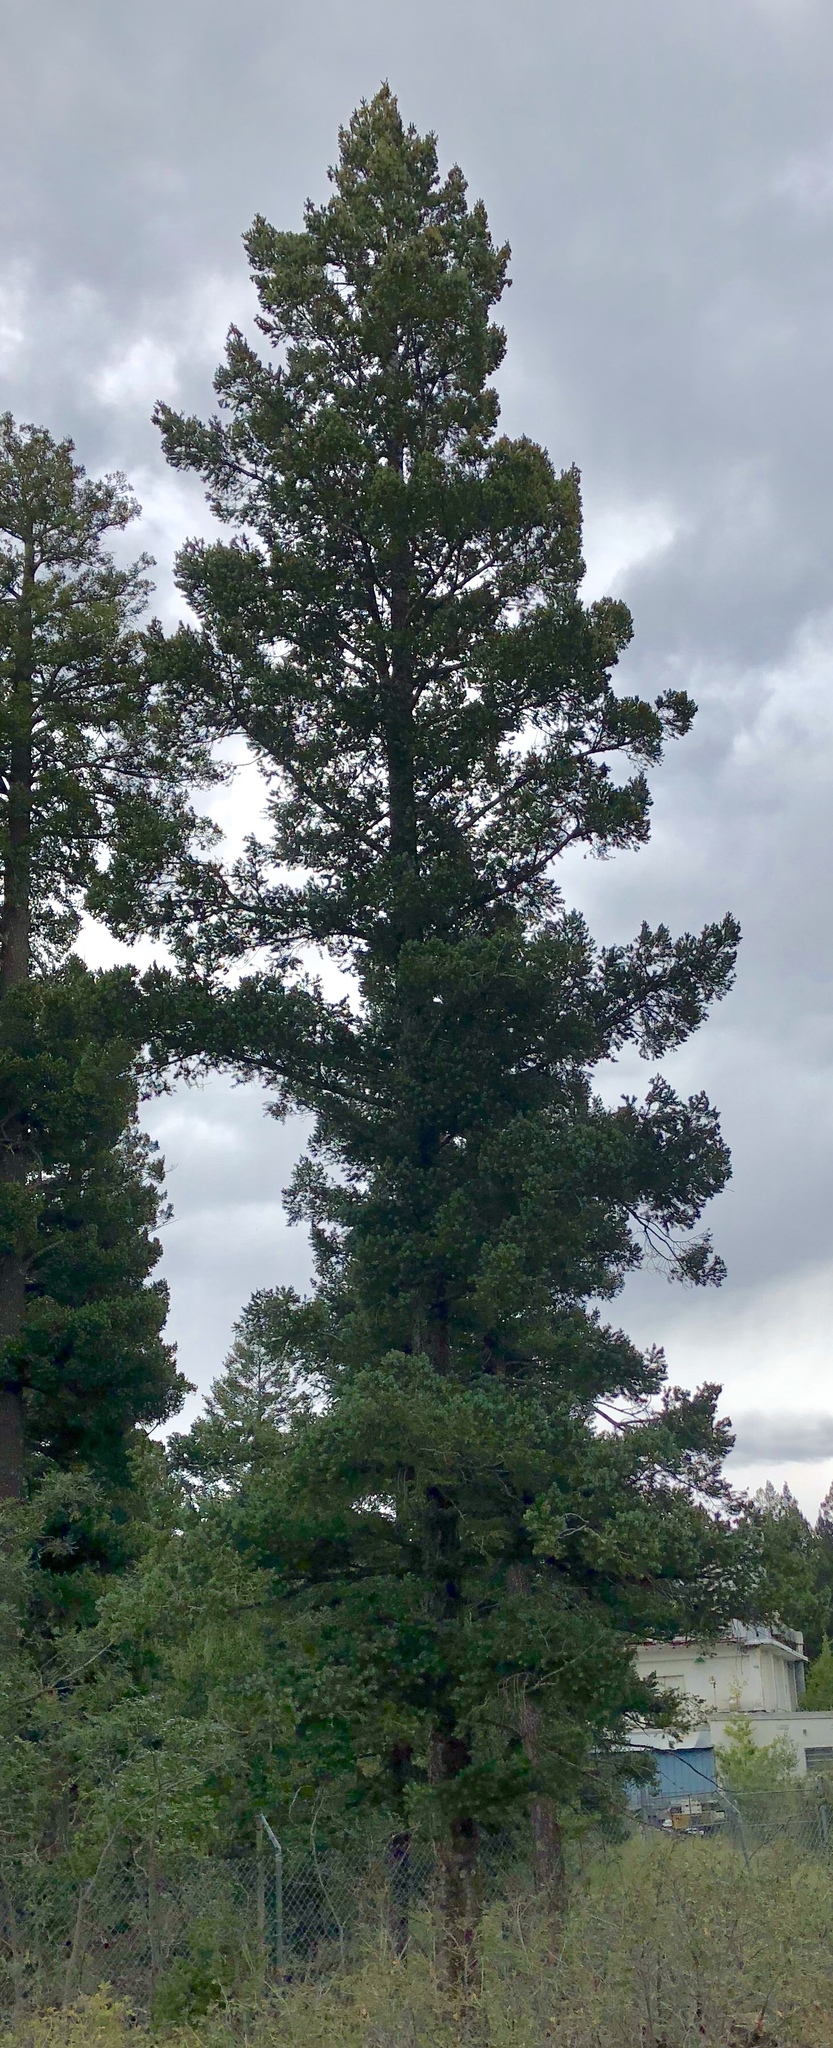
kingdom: Plantae
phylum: Tracheophyta
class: Pinopsida
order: Pinales
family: Pinaceae
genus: Pseudotsuga
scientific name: Pseudotsuga menziesii
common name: Douglas fir
